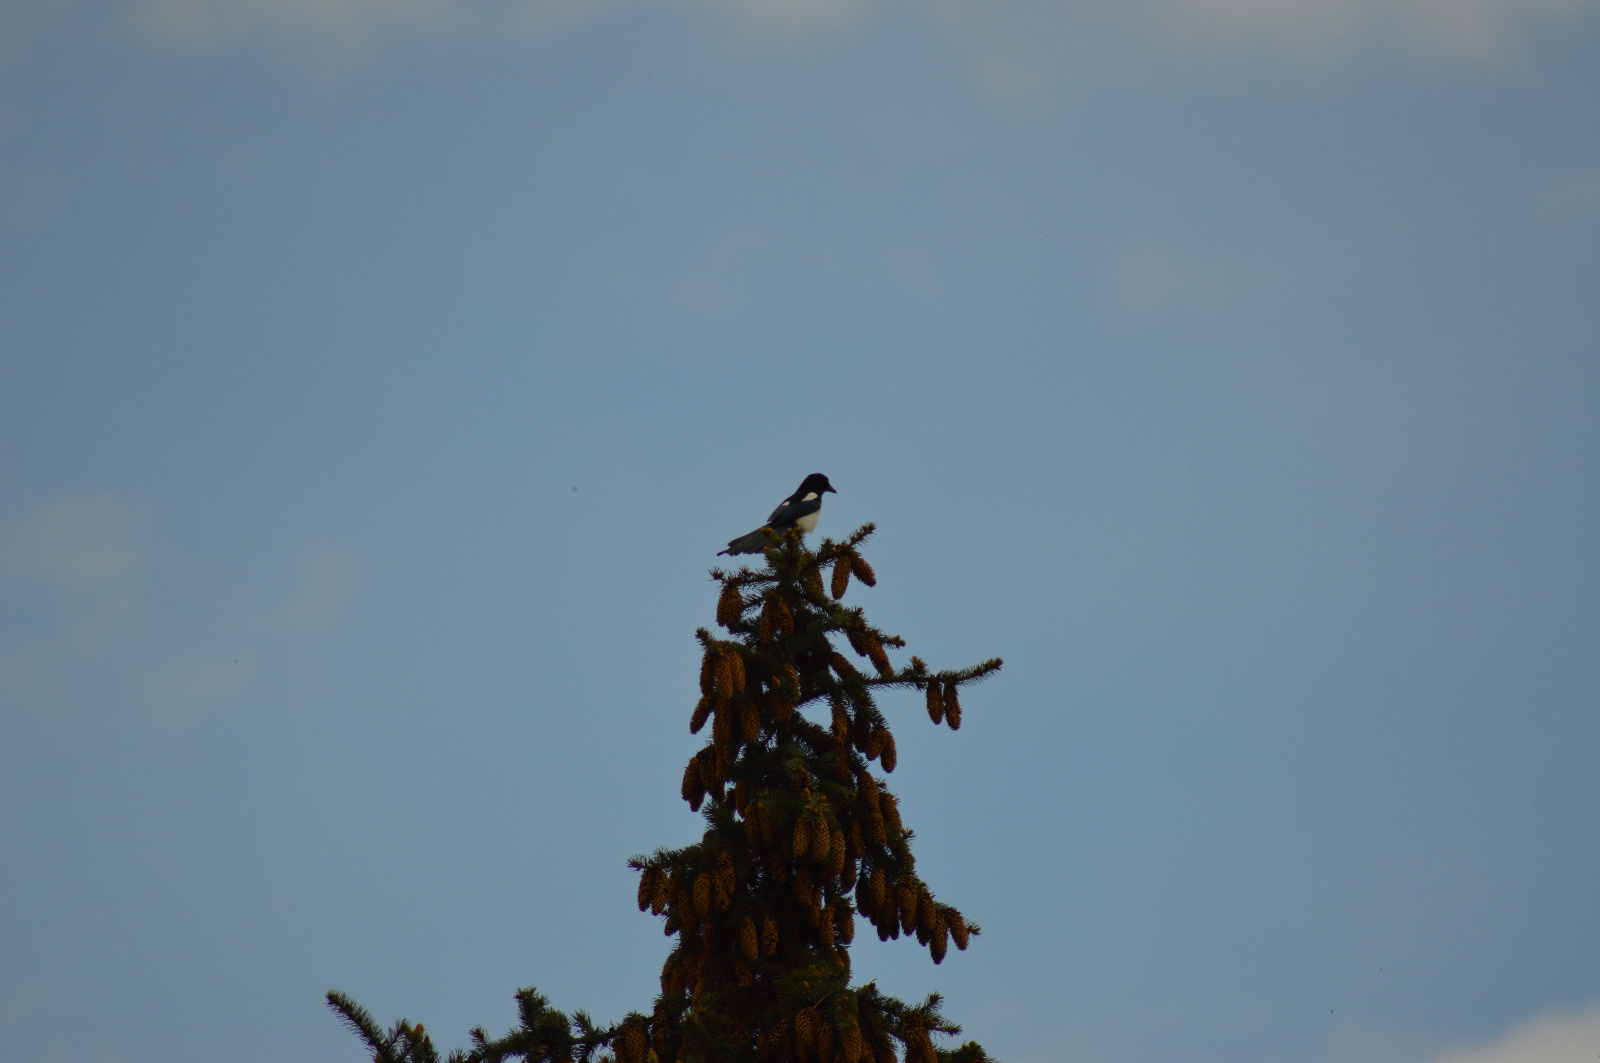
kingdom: Animalia
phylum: Chordata
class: Aves
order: Passeriformes
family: Corvidae
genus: Pica
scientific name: Pica pica
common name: Eurasian magpie
